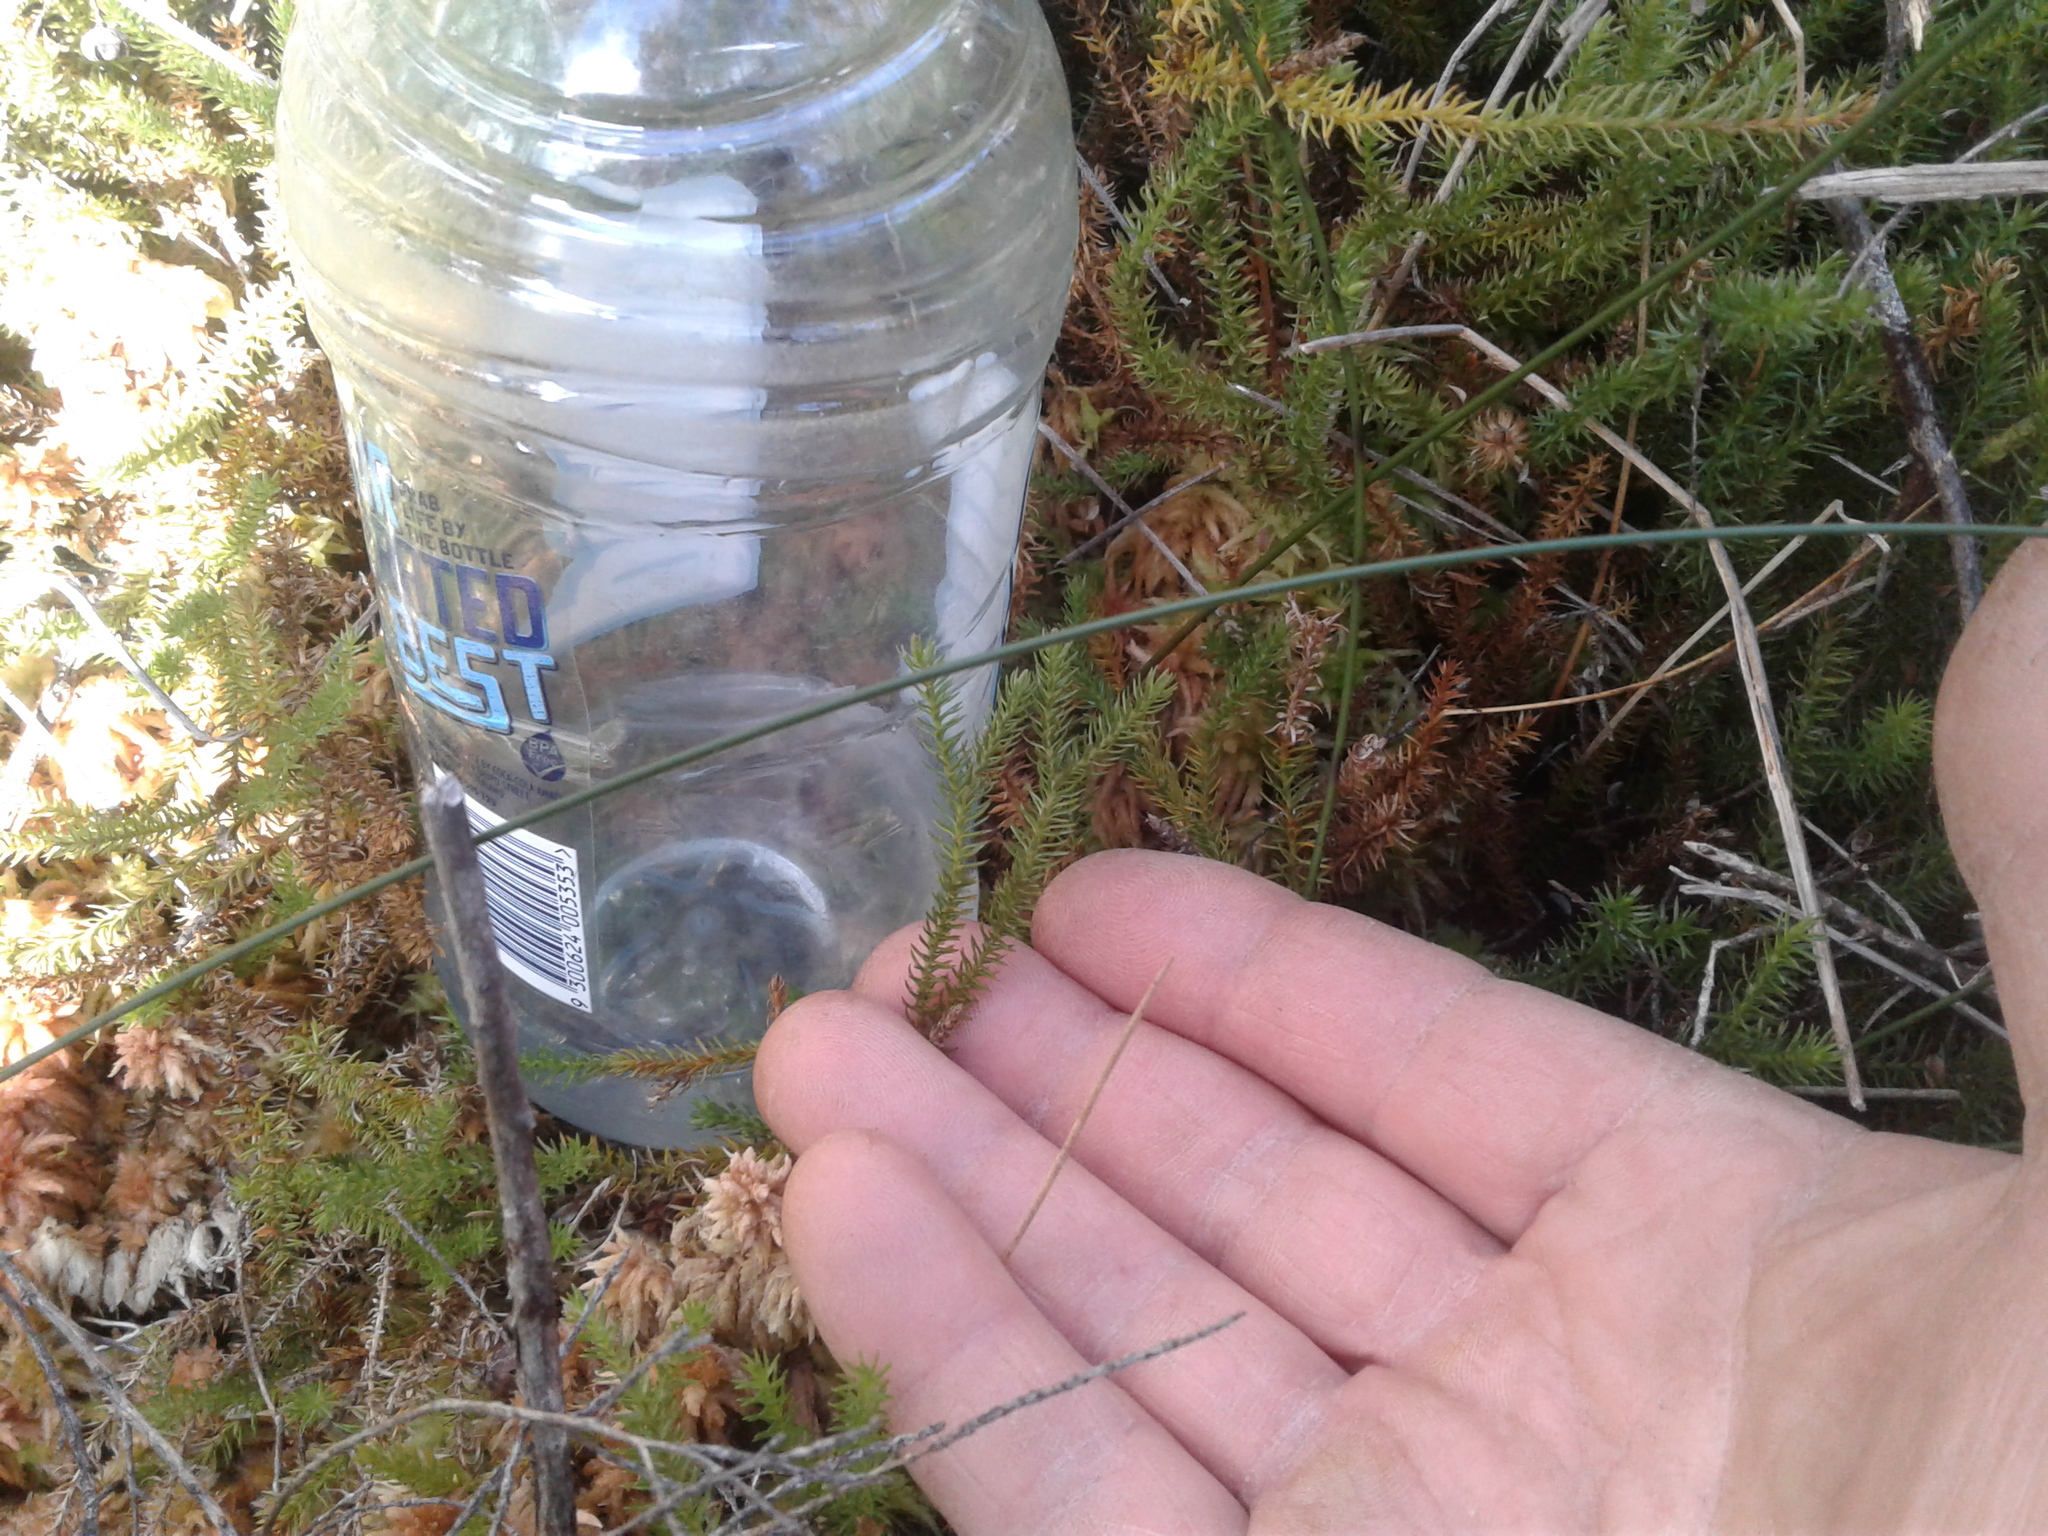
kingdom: Plantae
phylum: Tracheophyta
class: Lycopodiopsida
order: Lycopodiales
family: Lycopodiaceae
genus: Lateristachys
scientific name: Lateristachys lateralis
